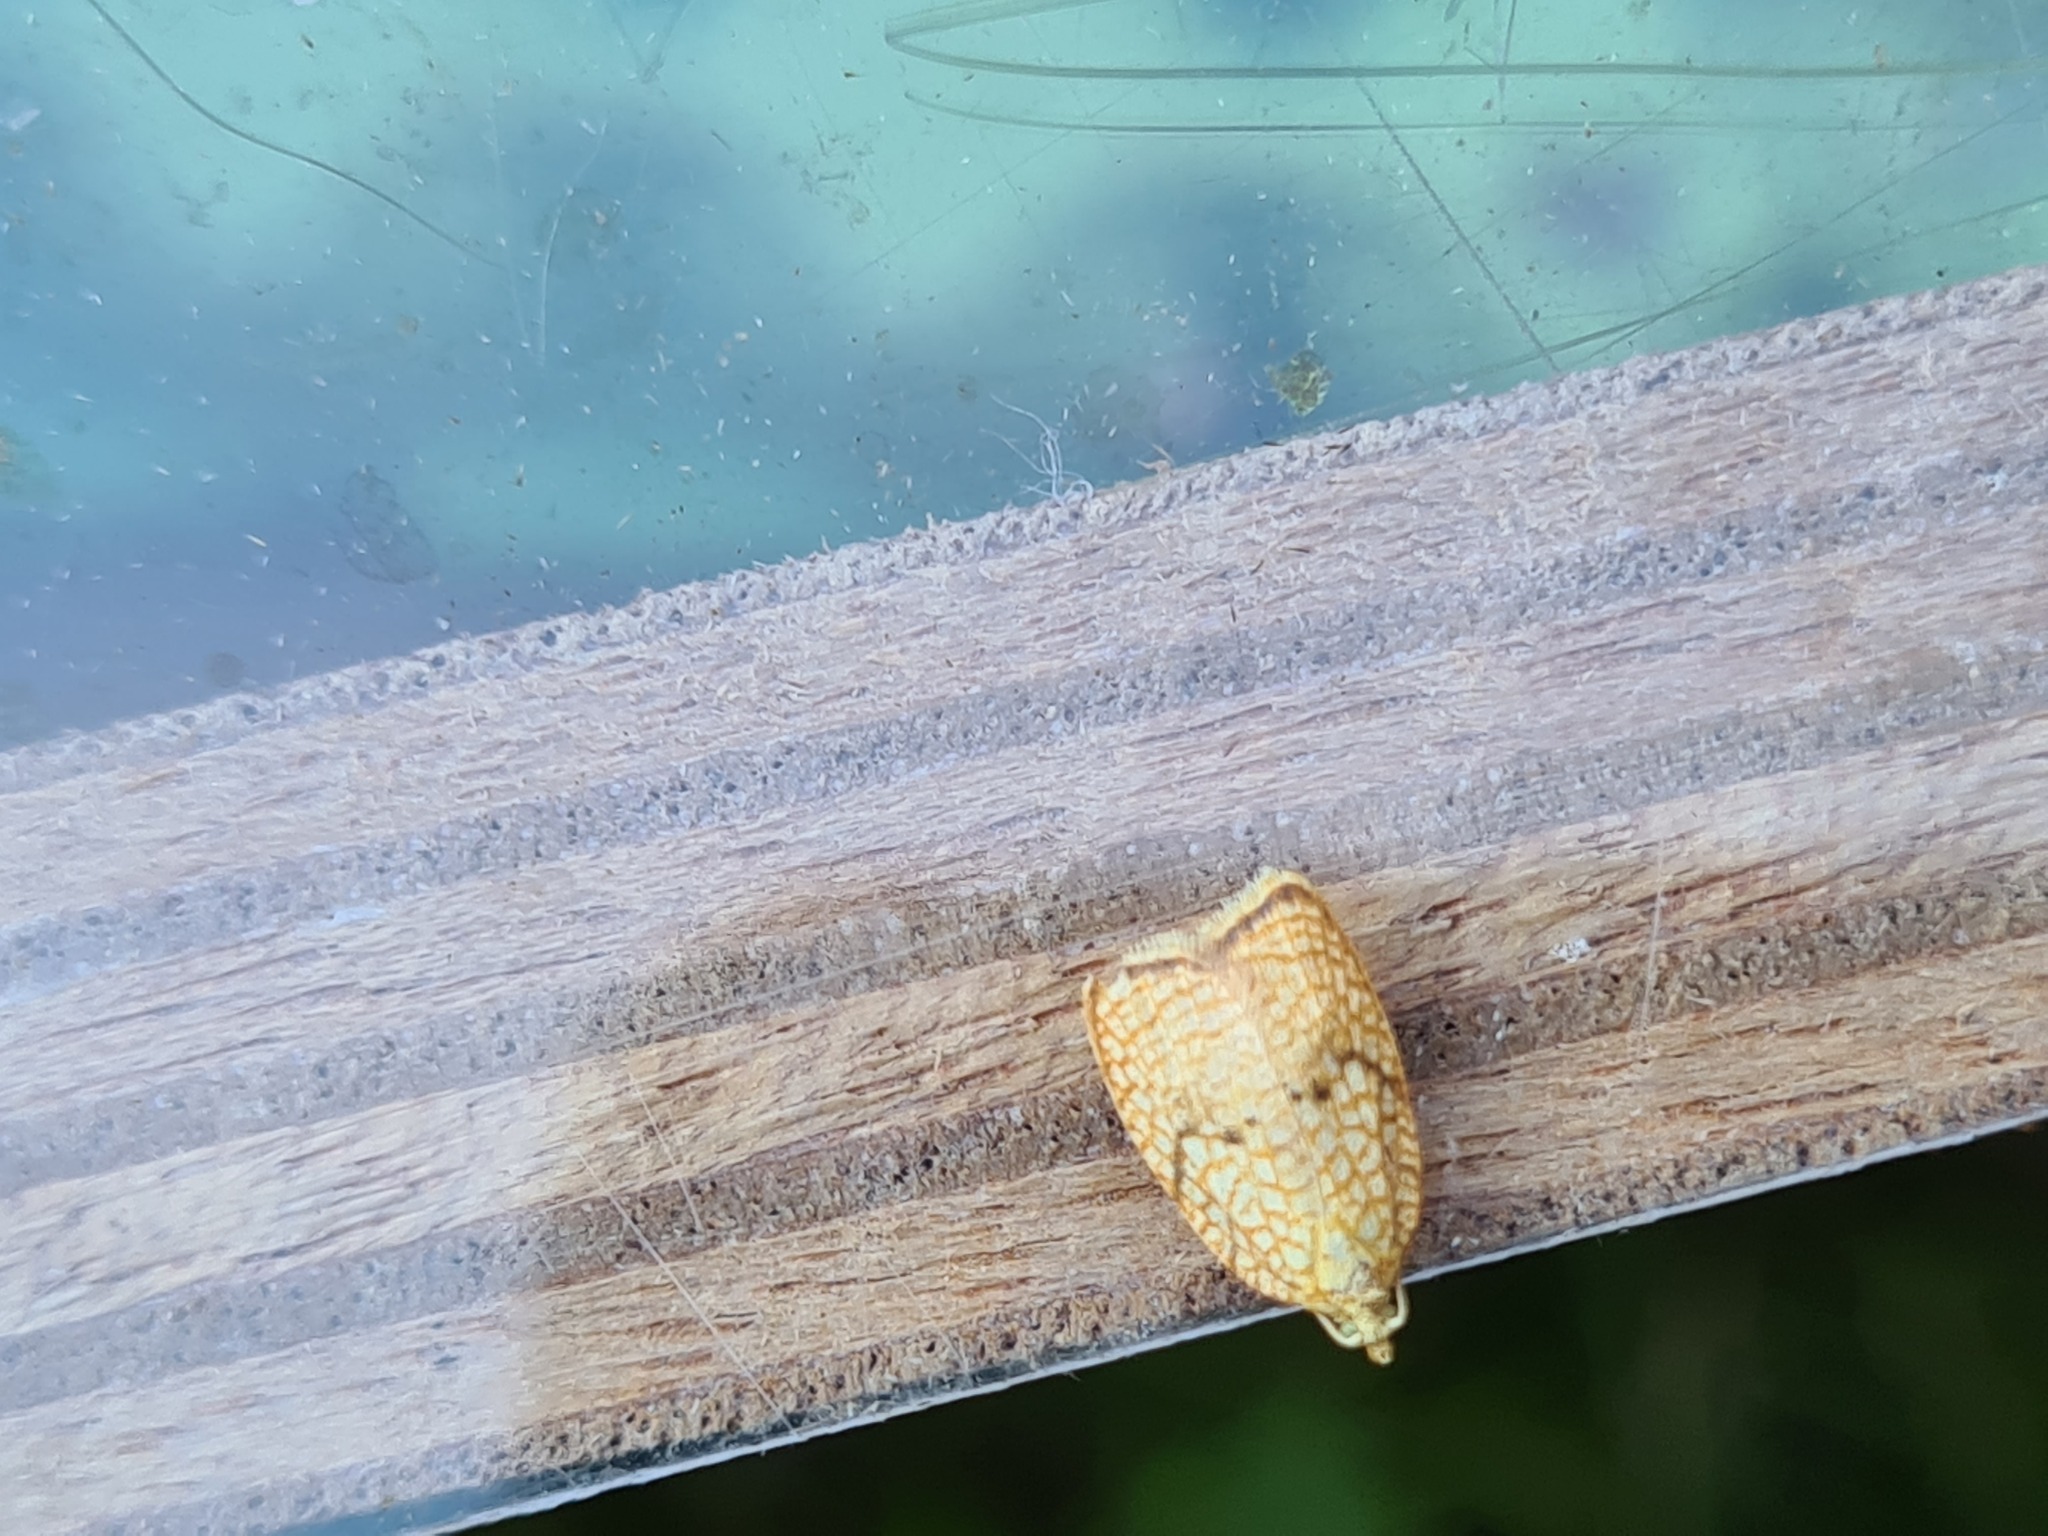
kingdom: Animalia
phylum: Arthropoda
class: Insecta
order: Lepidoptera
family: Tortricidae
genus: Acleris
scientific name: Acleris forsskaleana
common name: Maple button
